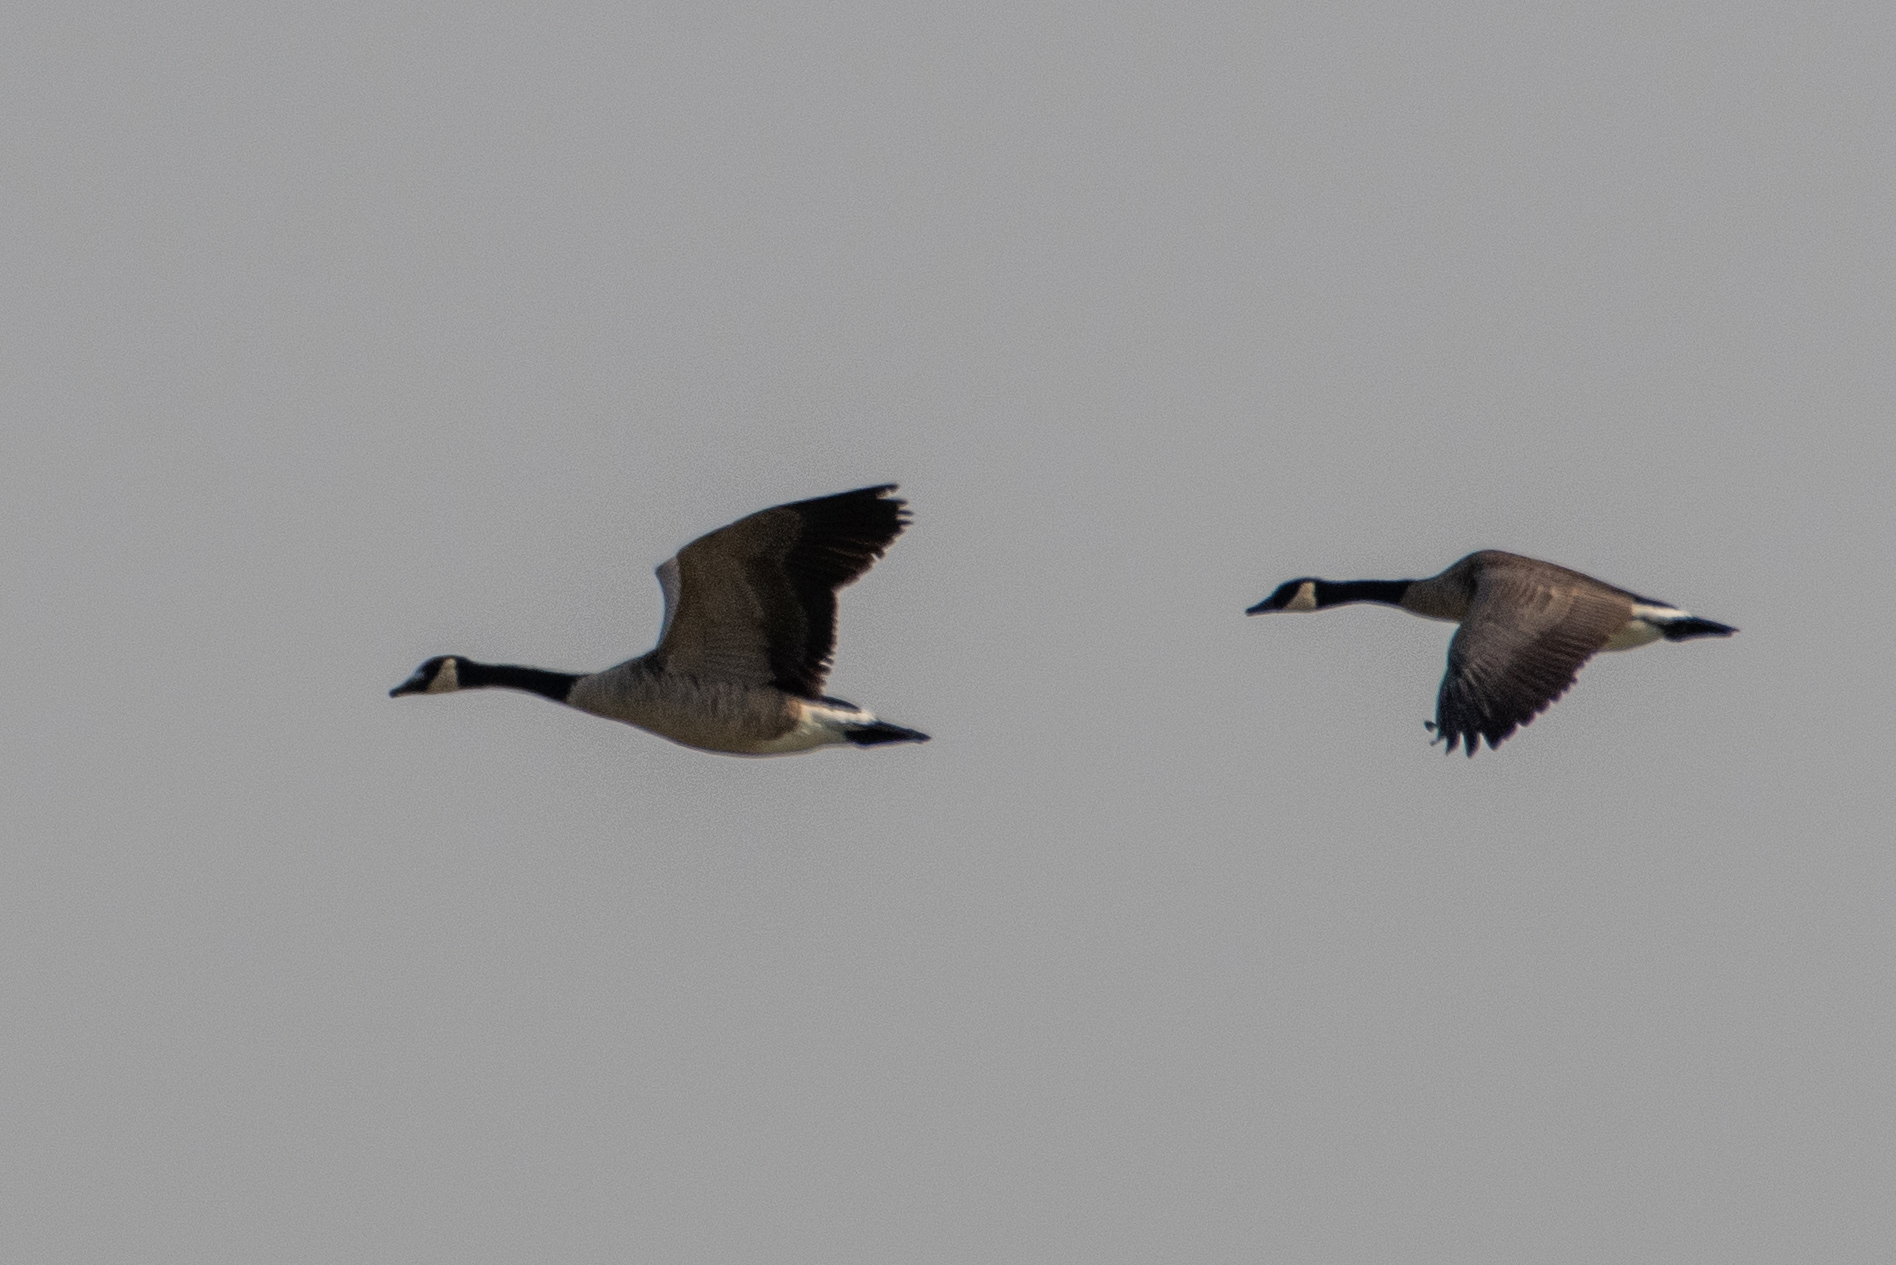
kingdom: Animalia
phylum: Chordata
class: Aves
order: Anseriformes
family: Anatidae
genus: Branta
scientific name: Branta canadensis
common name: Canada goose
